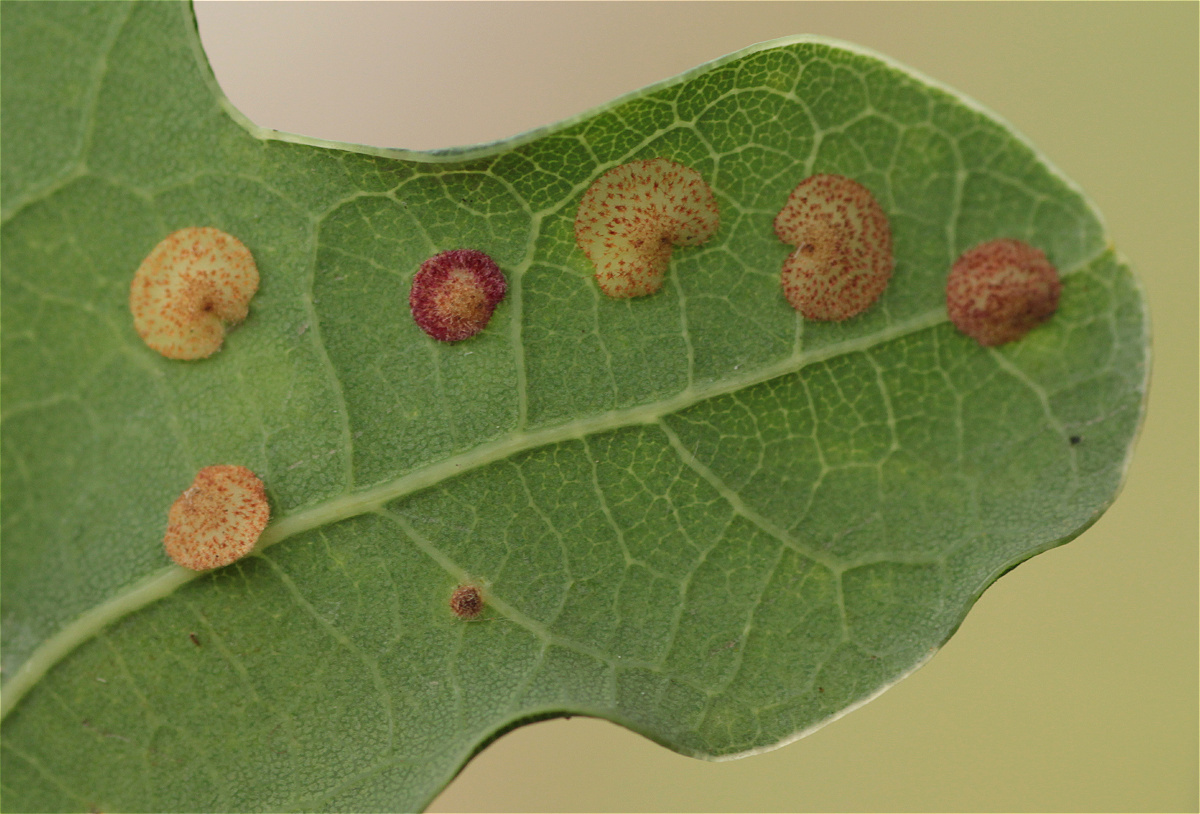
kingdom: Animalia
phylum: Arthropoda
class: Insecta
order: Hymenoptera
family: Cynipidae
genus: Neuroterus
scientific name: Neuroterus quercusbaccarum
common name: Common spangle gall
